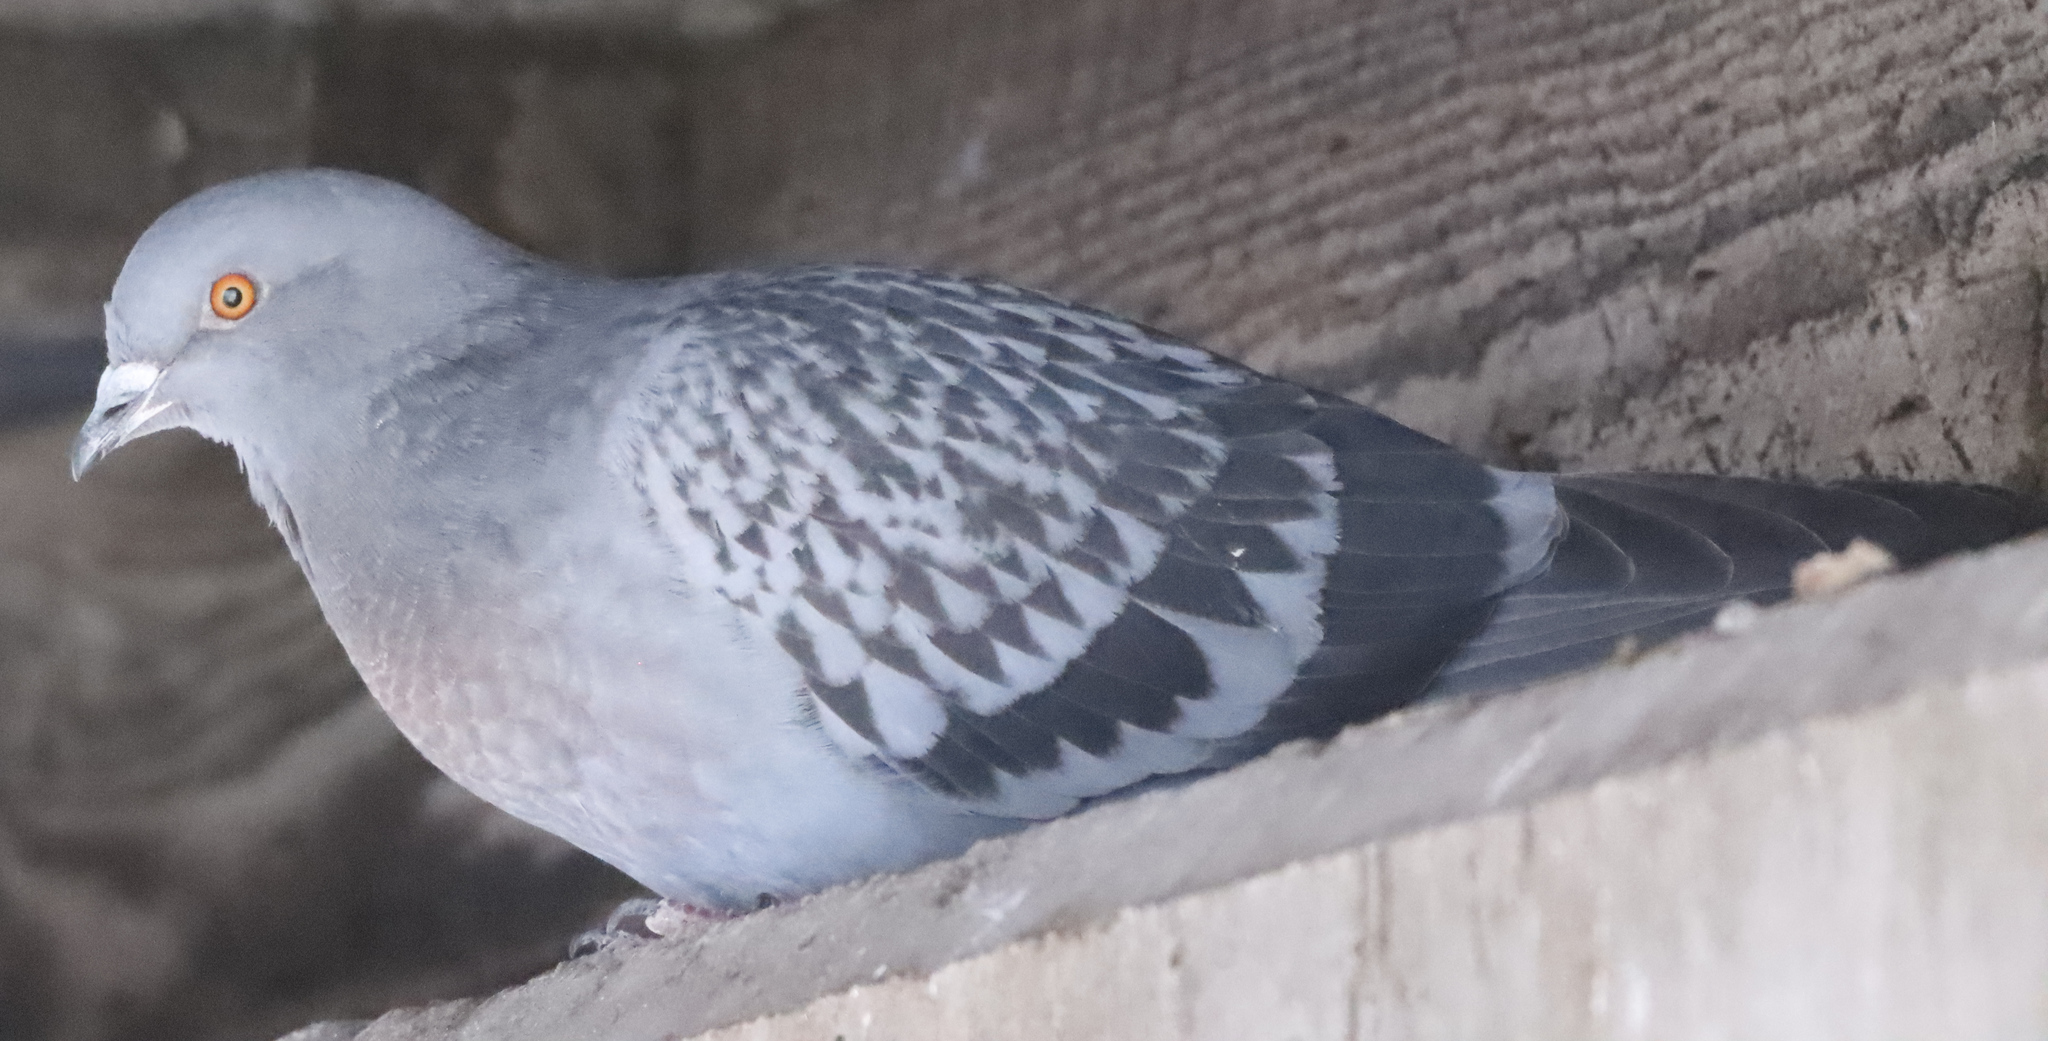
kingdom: Animalia
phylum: Chordata
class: Aves
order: Columbiformes
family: Columbidae
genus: Columba
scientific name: Columba livia
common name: Rock pigeon
